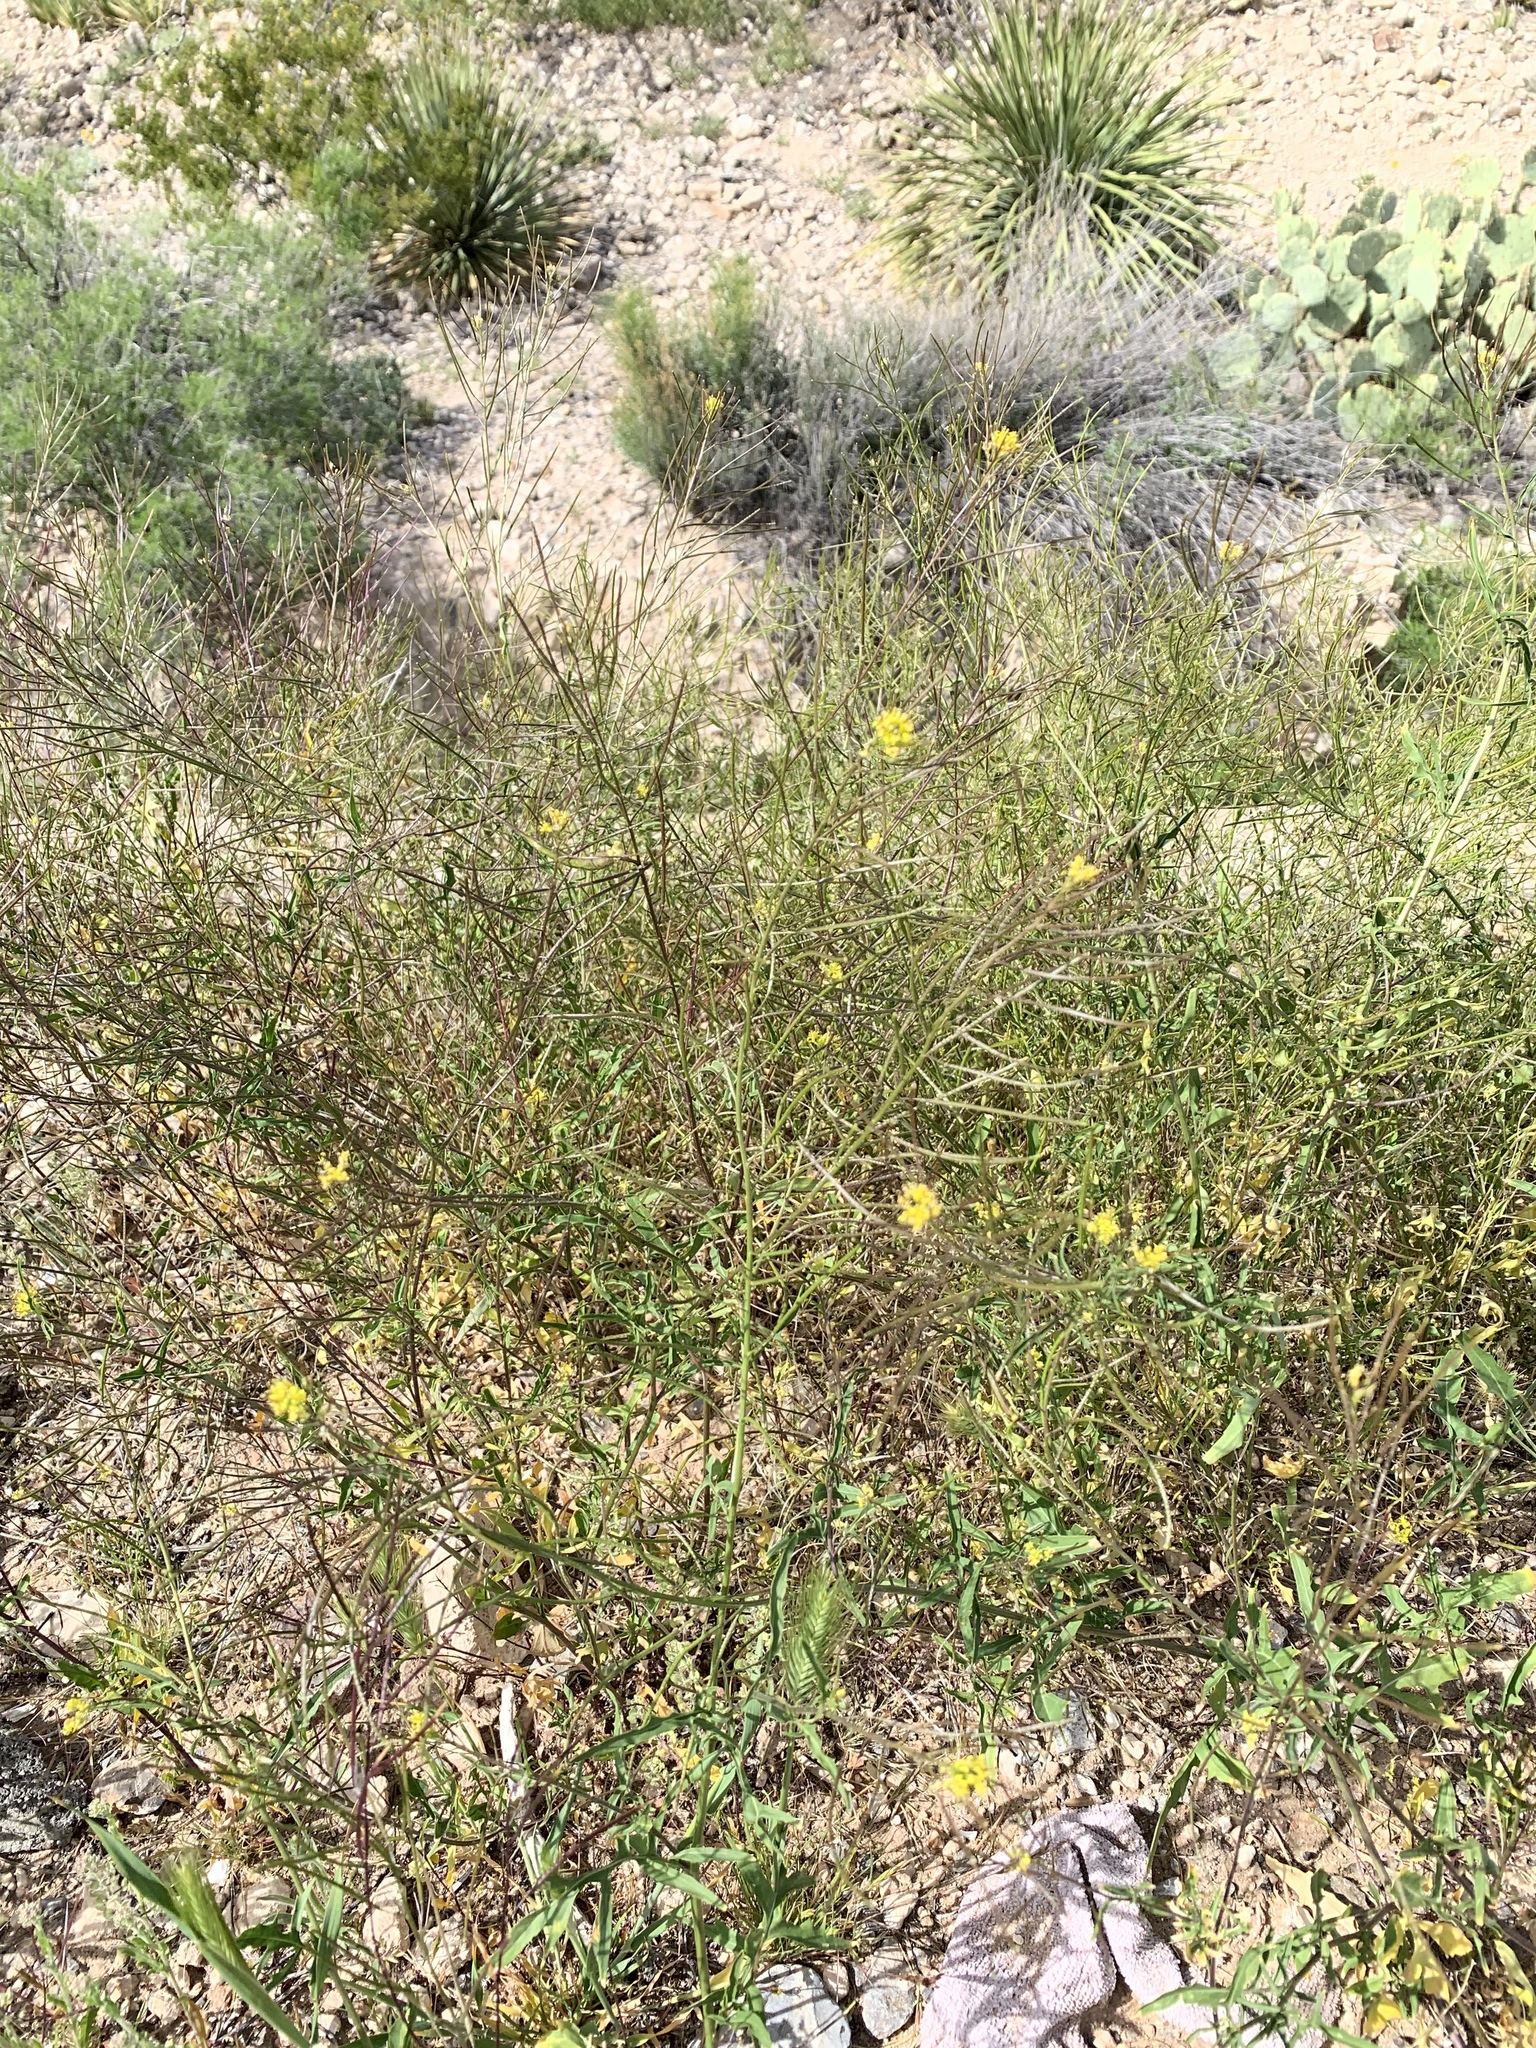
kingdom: Plantae
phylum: Tracheophyta
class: Magnoliopsida
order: Brassicales
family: Brassicaceae
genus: Sisymbrium
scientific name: Sisymbrium irio
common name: London rocket
